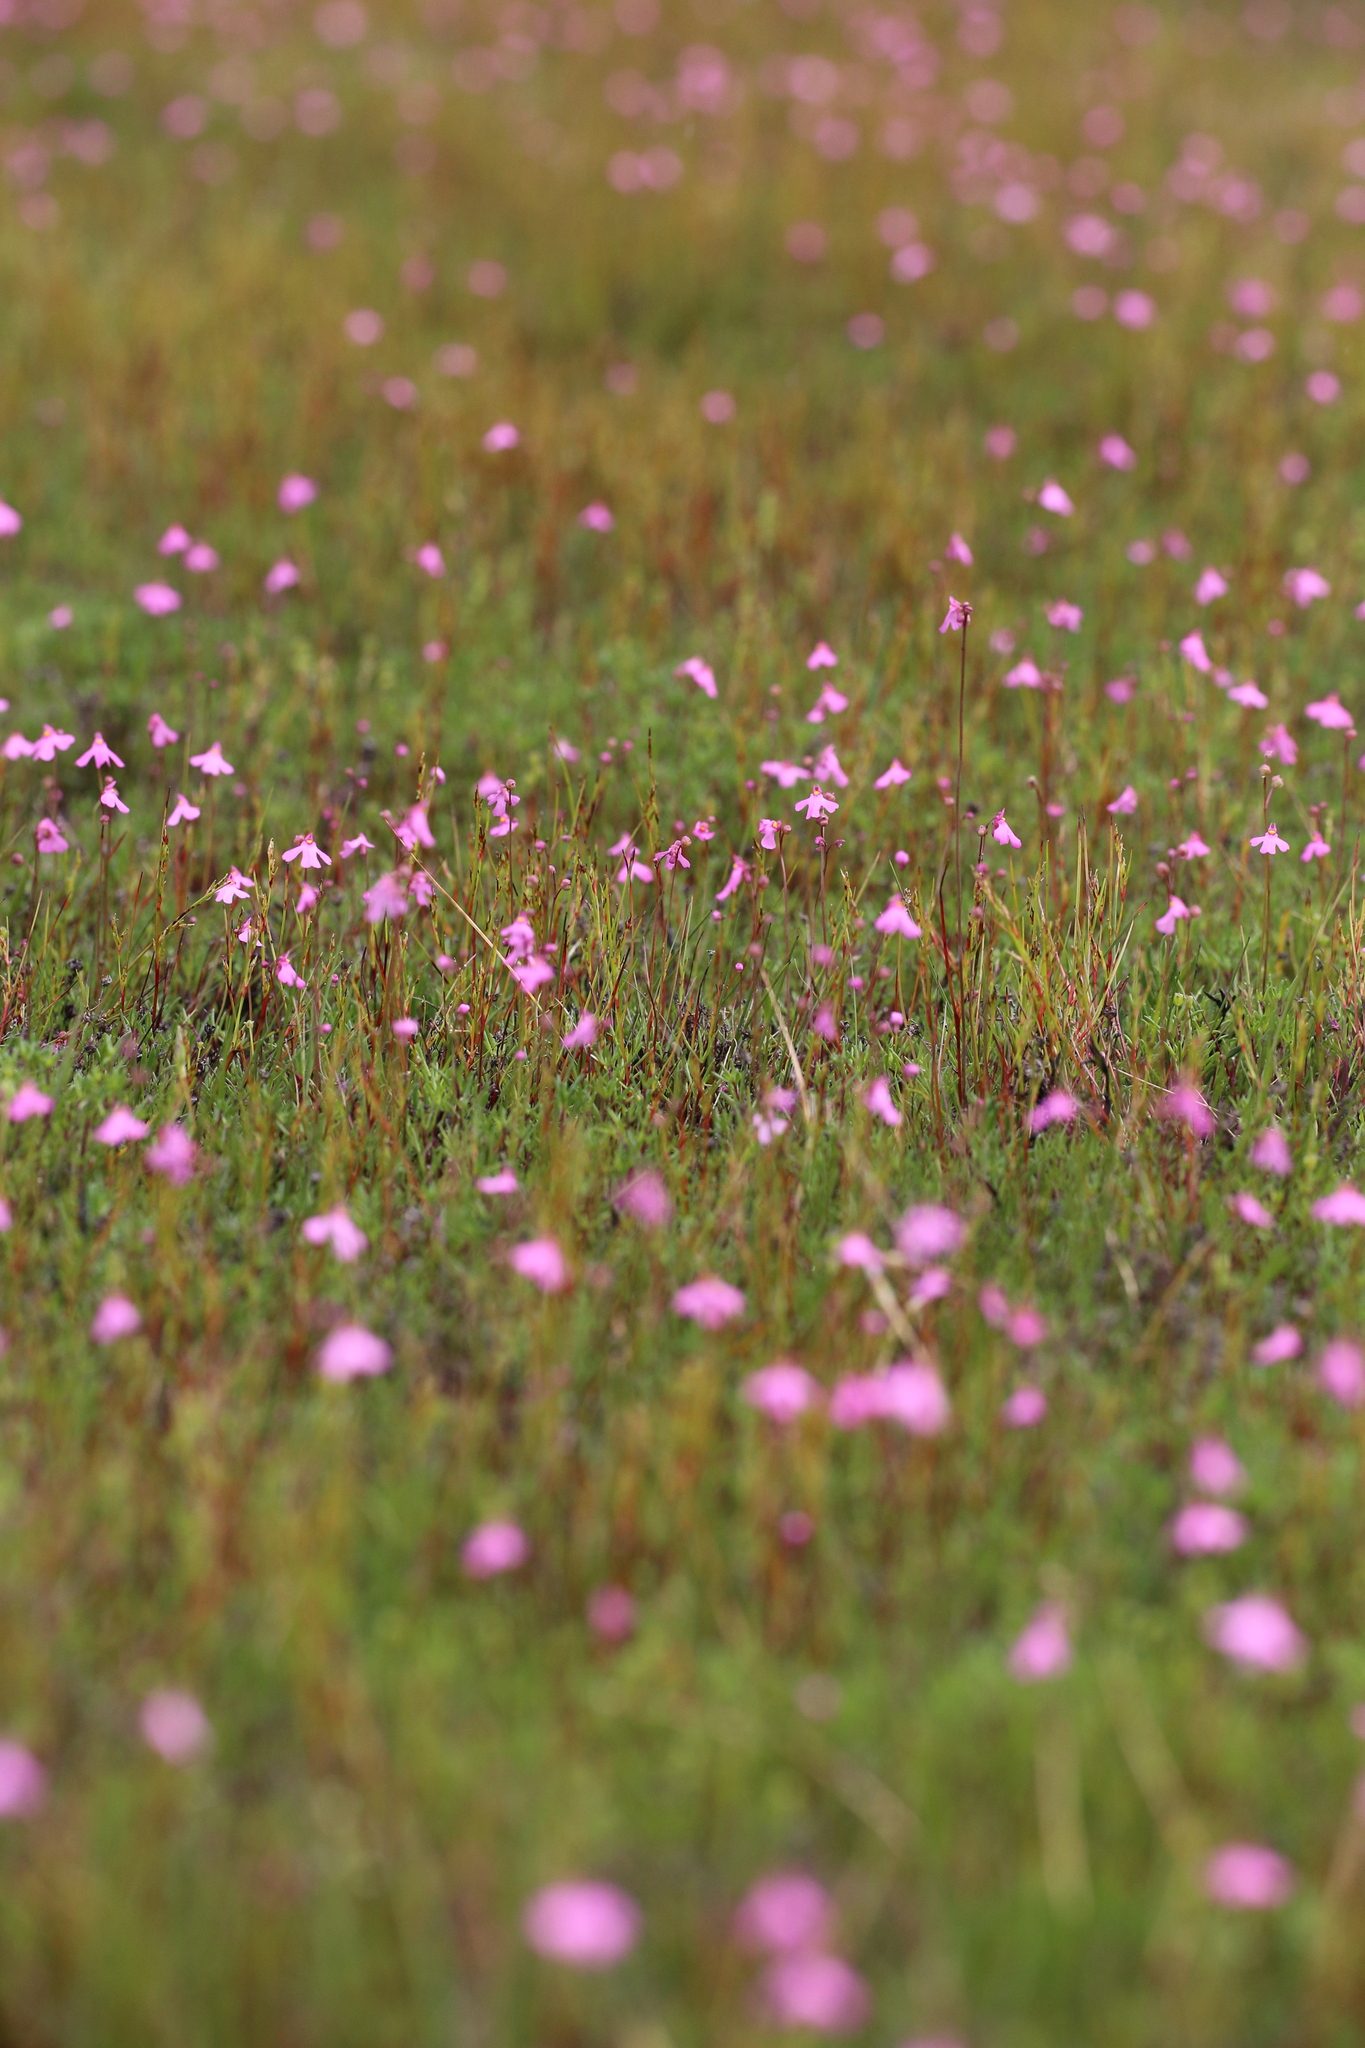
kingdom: Plantae
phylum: Tracheophyta
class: Magnoliopsida
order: Lamiales
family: Lentibulariaceae
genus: Utricularia
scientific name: Utricularia multifida
